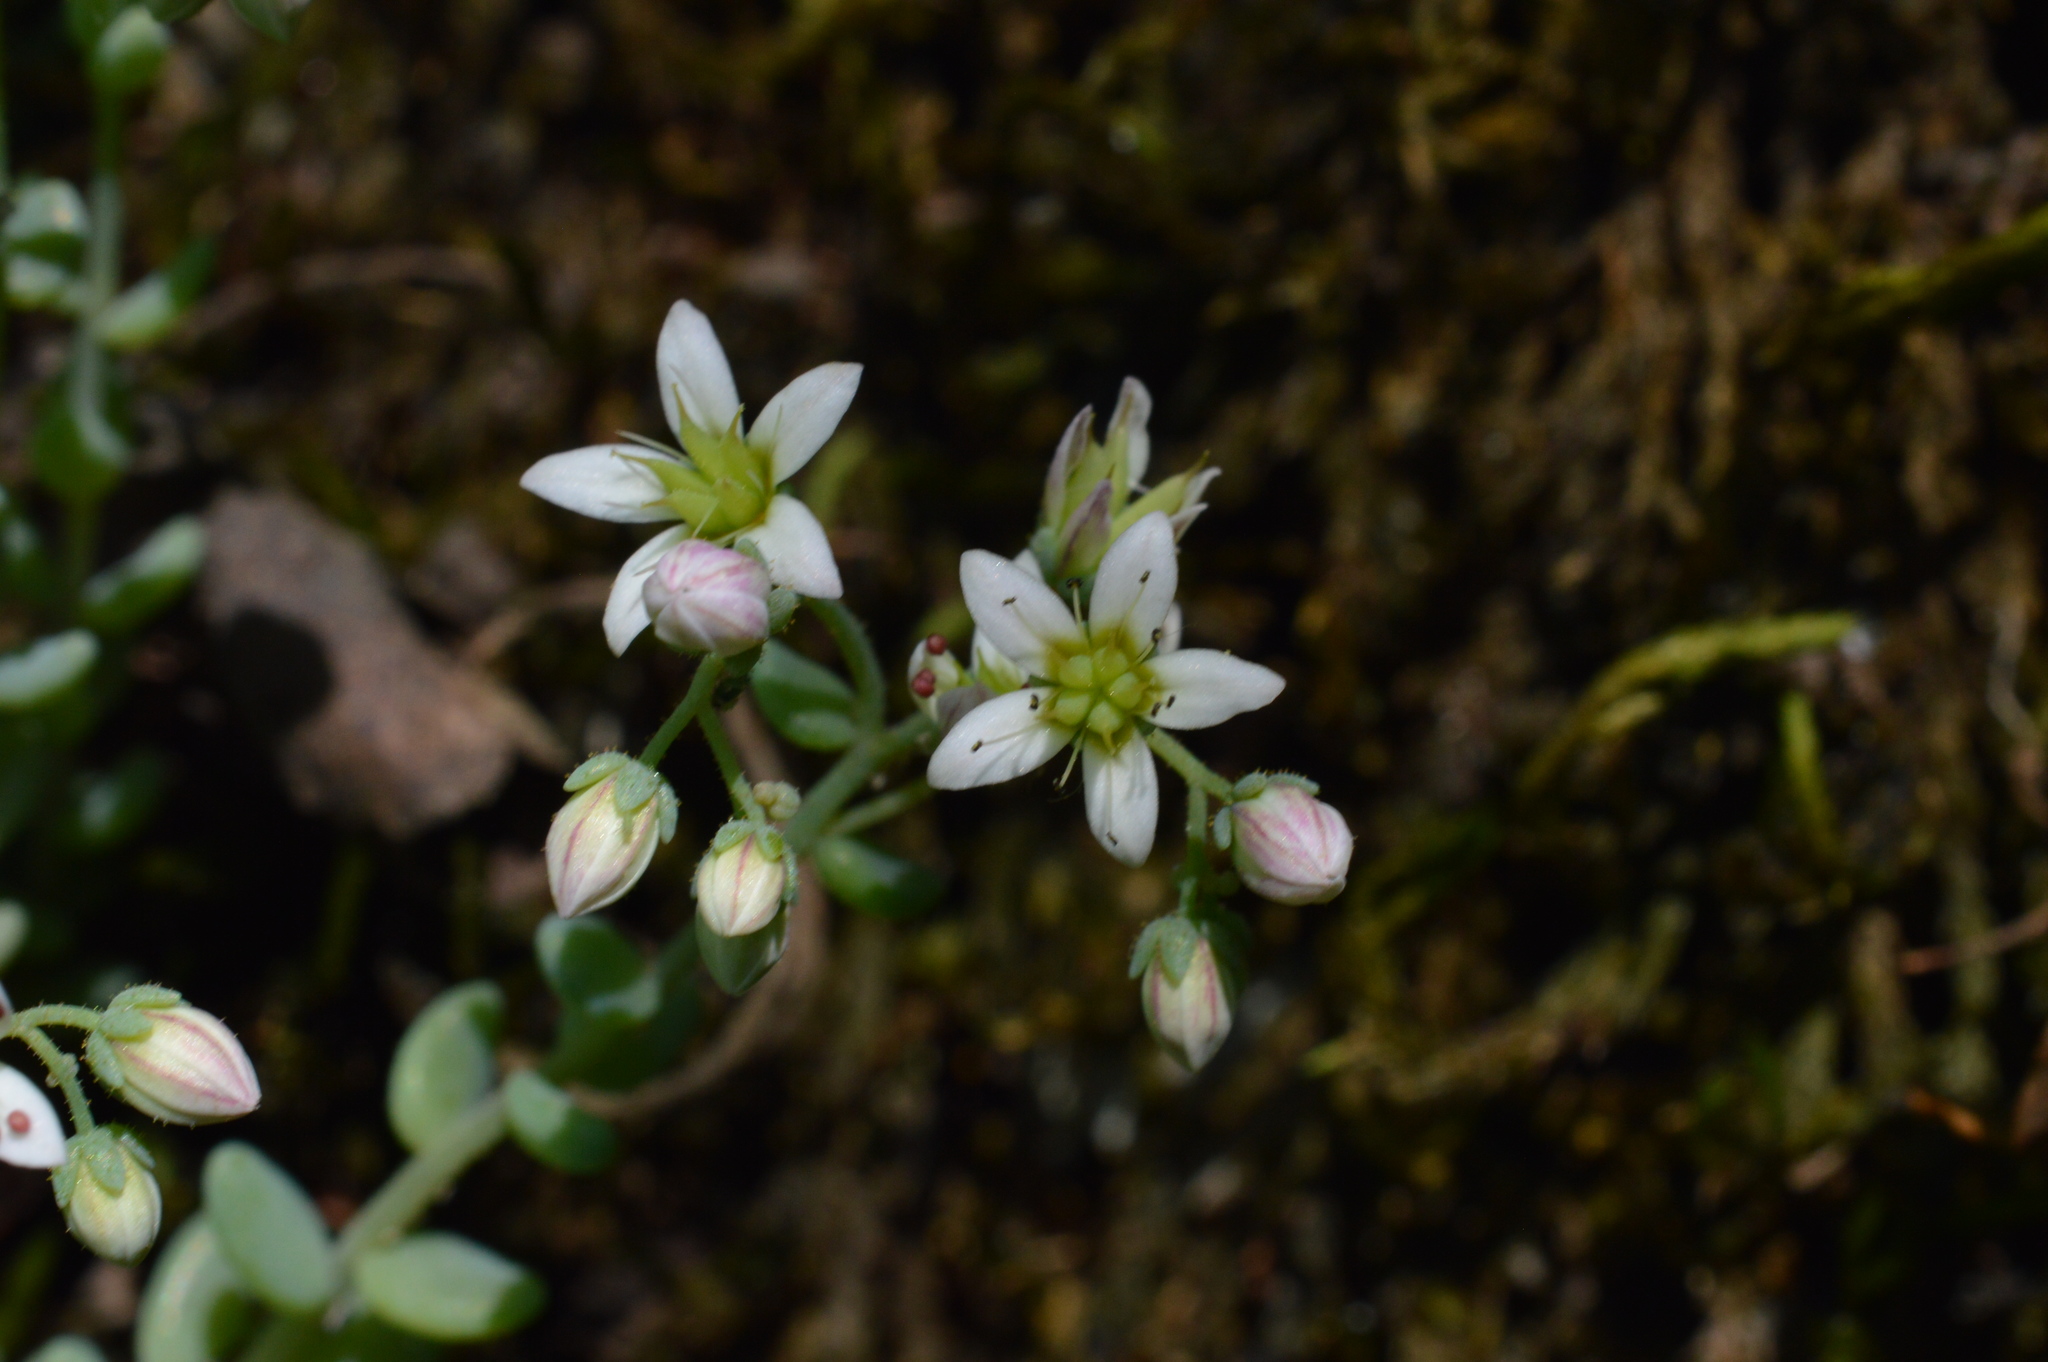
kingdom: Plantae
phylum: Tracheophyta
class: Magnoliopsida
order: Saxifragales
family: Crassulaceae
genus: Sedum
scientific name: Sedum dasyphyllum
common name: Thick-leaf stonecrop
